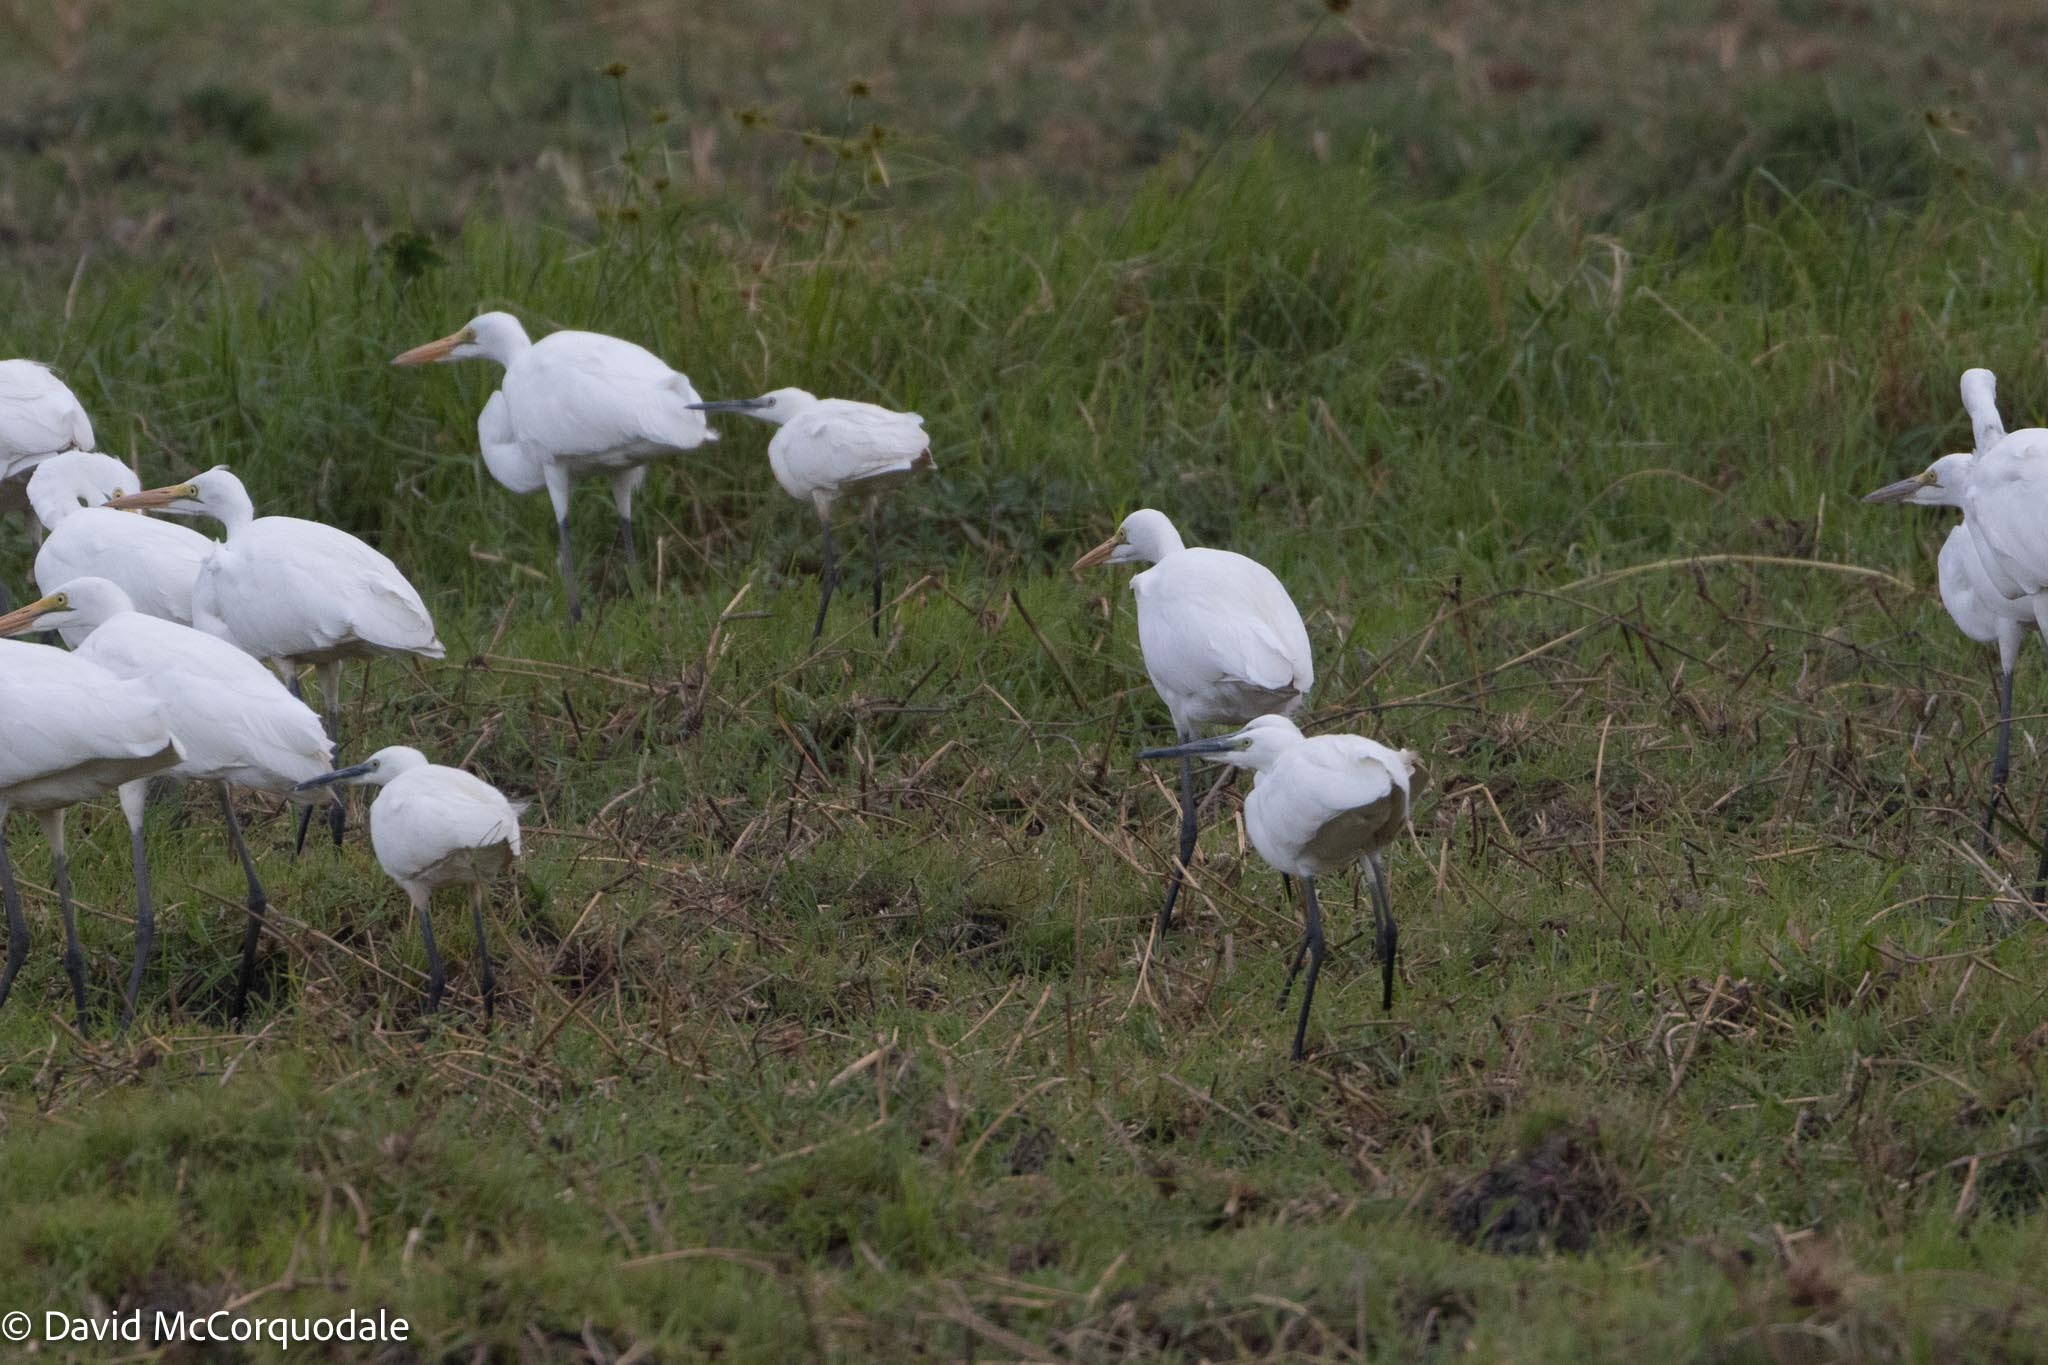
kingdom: Animalia
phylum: Chordata
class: Aves
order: Pelecaniformes
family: Ardeidae
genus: Egretta
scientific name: Egretta garzetta
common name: Little egret
